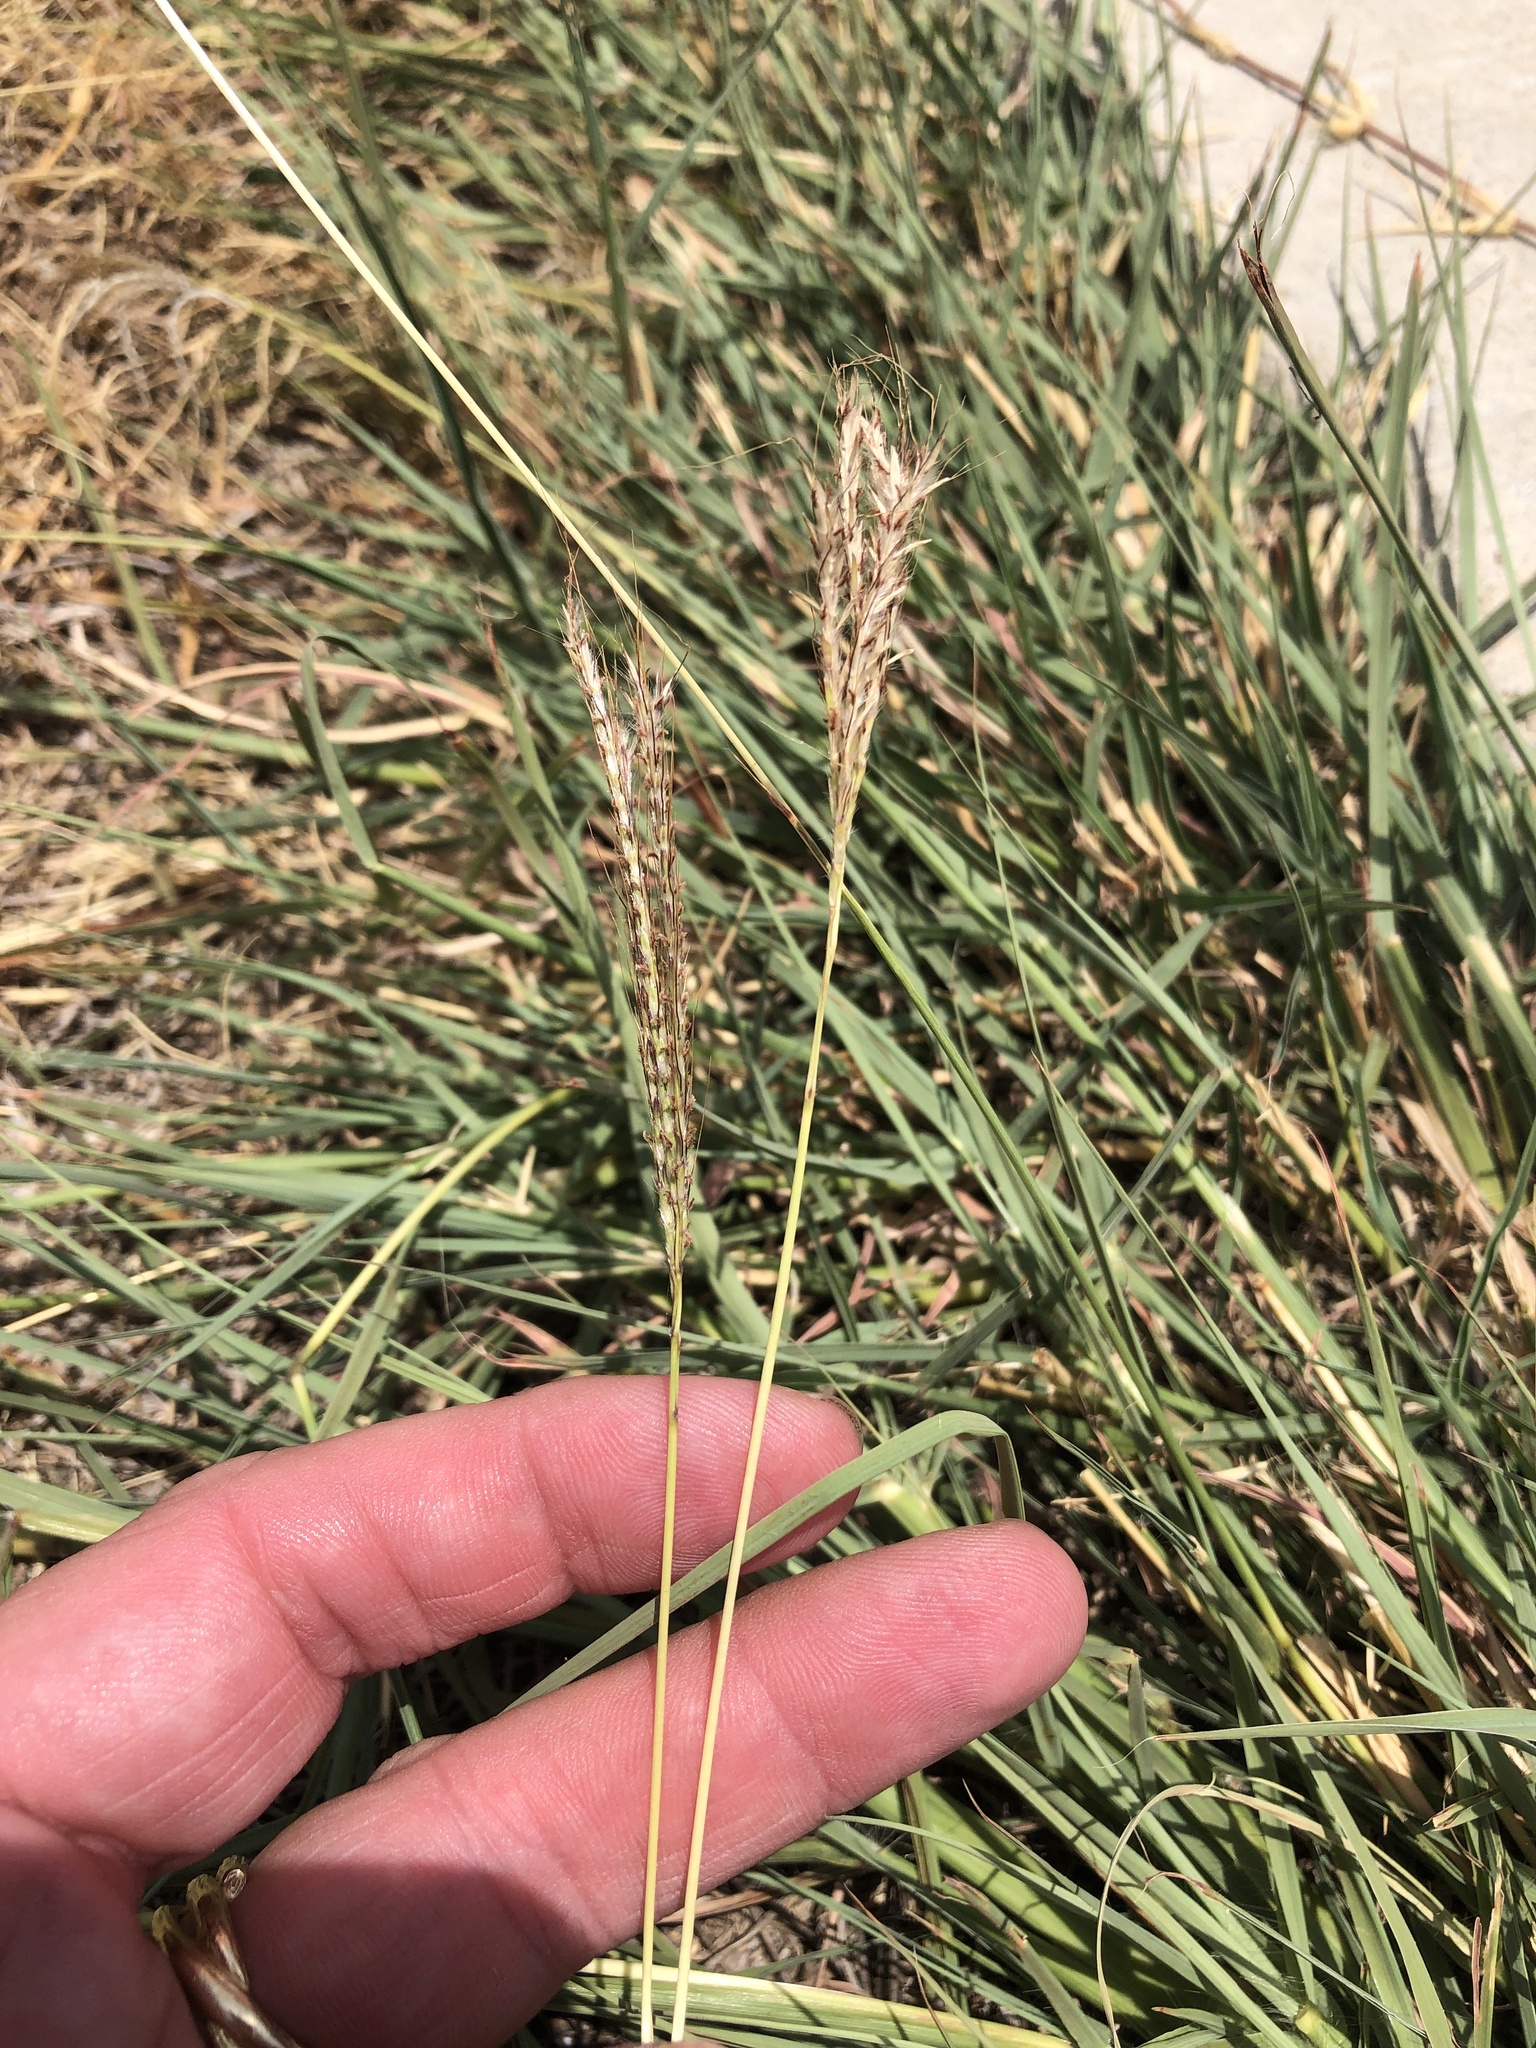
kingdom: Plantae
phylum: Tracheophyta
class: Liliopsida
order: Poales
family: Poaceae
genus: Bothriochloa
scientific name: Bothriochloa ischaemum
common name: Yellow bluestem
